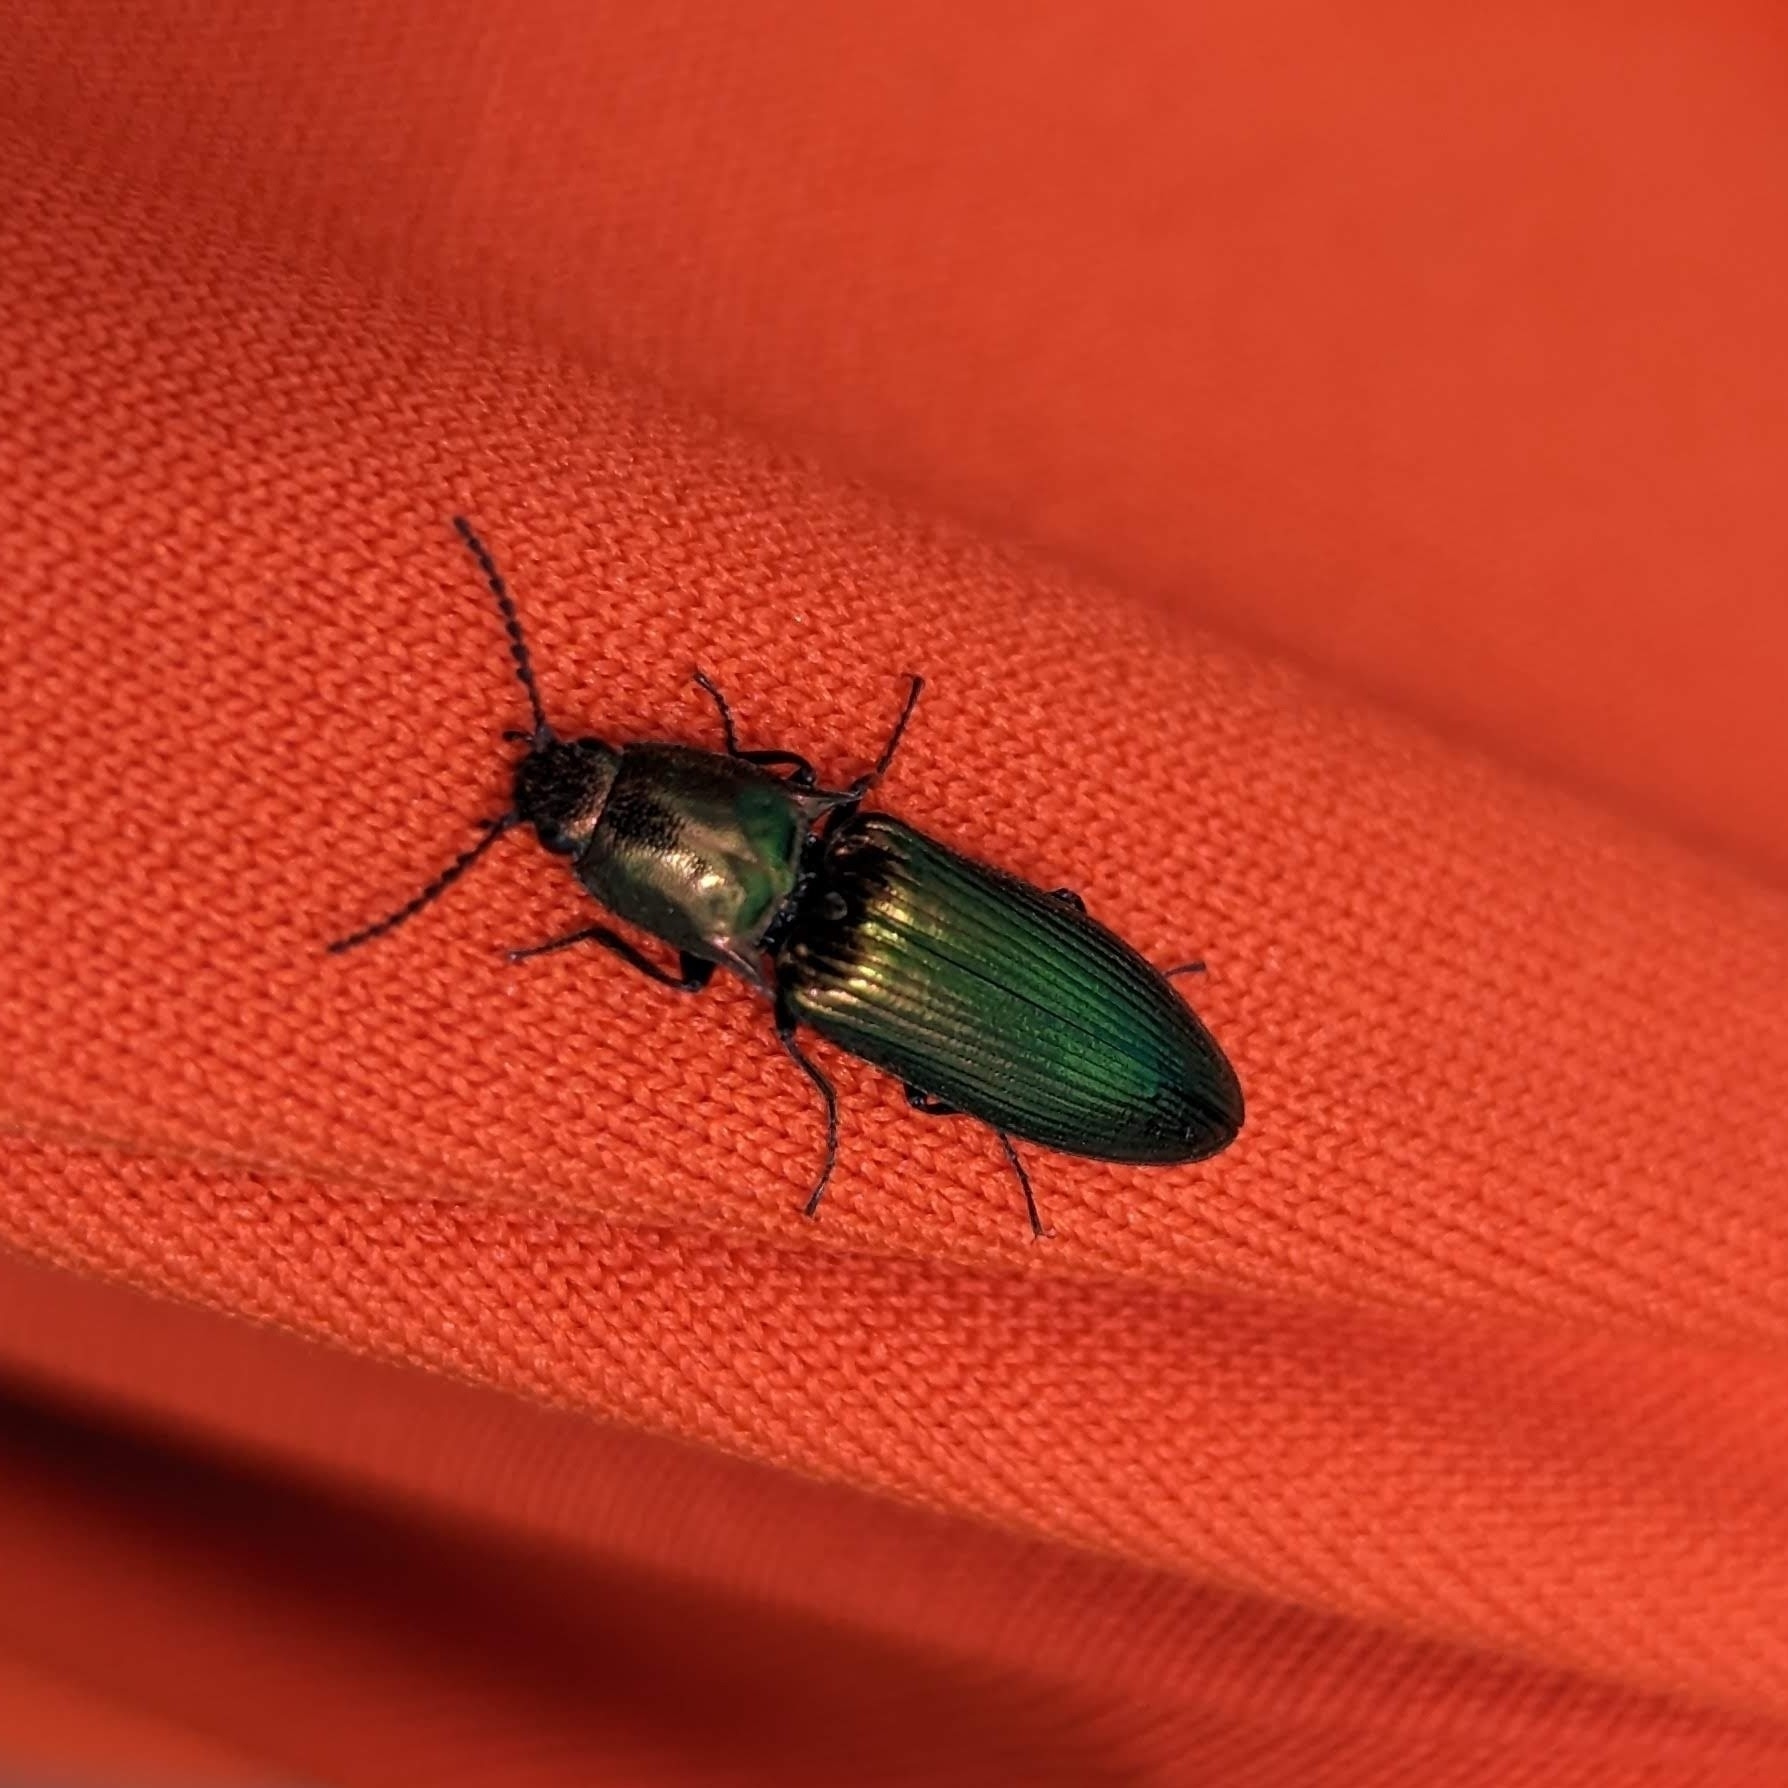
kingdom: Animalia
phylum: Arthropoda
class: Insecta
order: Coleoptera
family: Elateridae
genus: Nitidolimonius
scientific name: Nitidolimonius resplendens
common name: Resplendent click beetle
